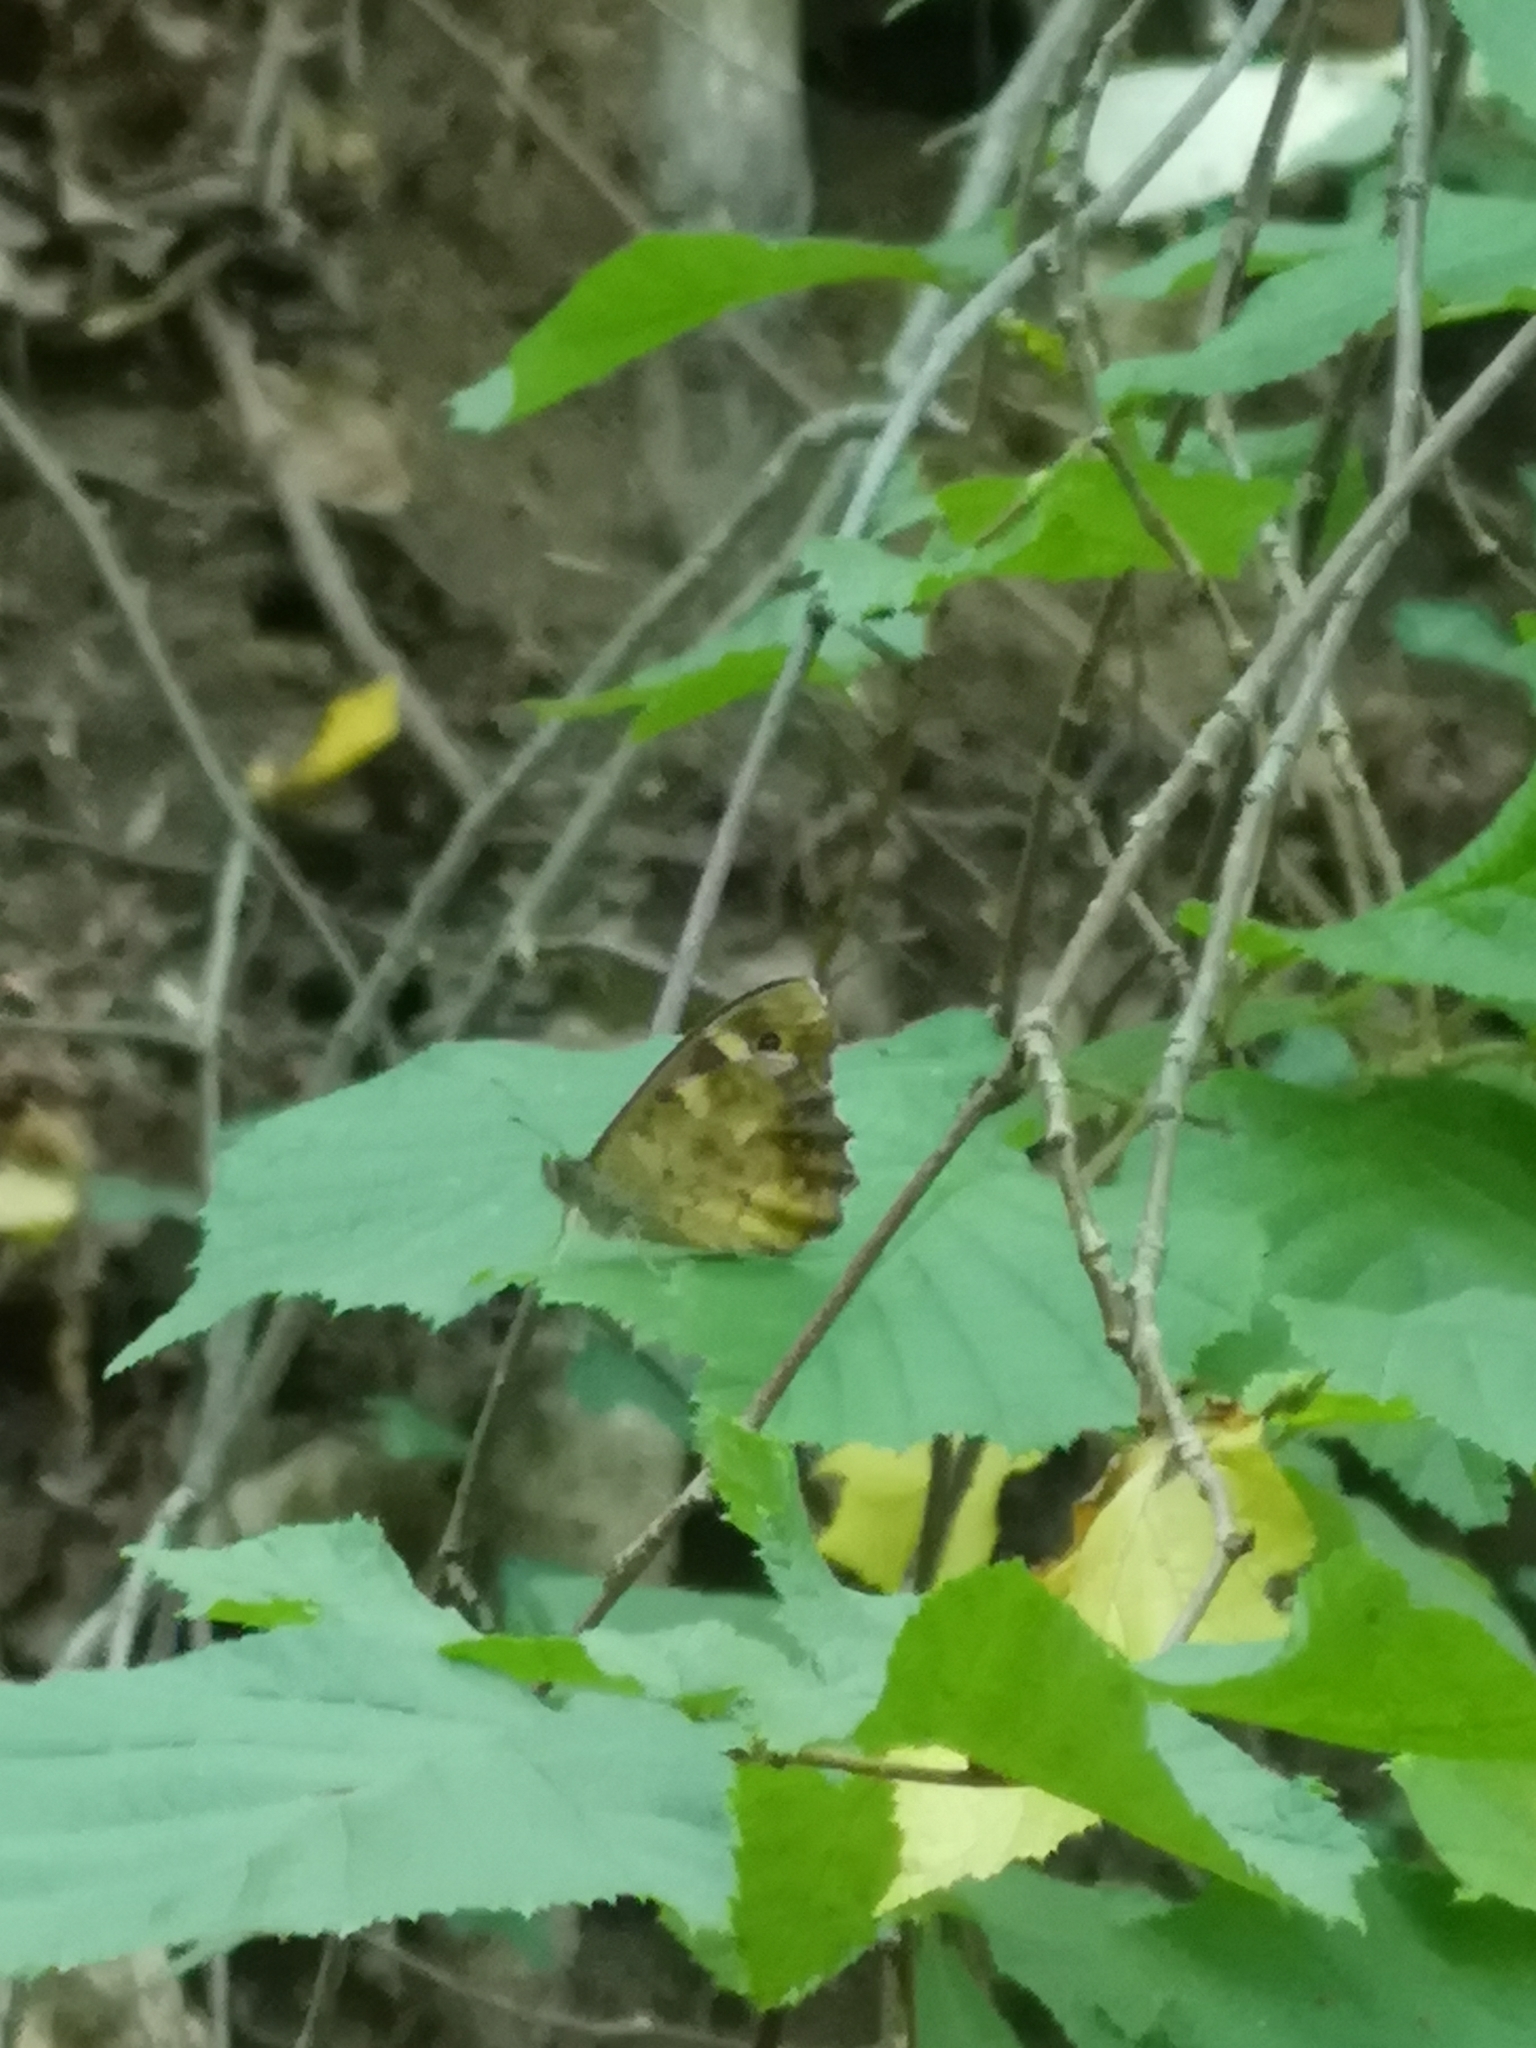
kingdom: Animalia
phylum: Arthropoda
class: Insecta
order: Lepidoptera
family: Nymphalidae
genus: Pararge
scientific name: Pararge aegeria
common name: Speckled wood
